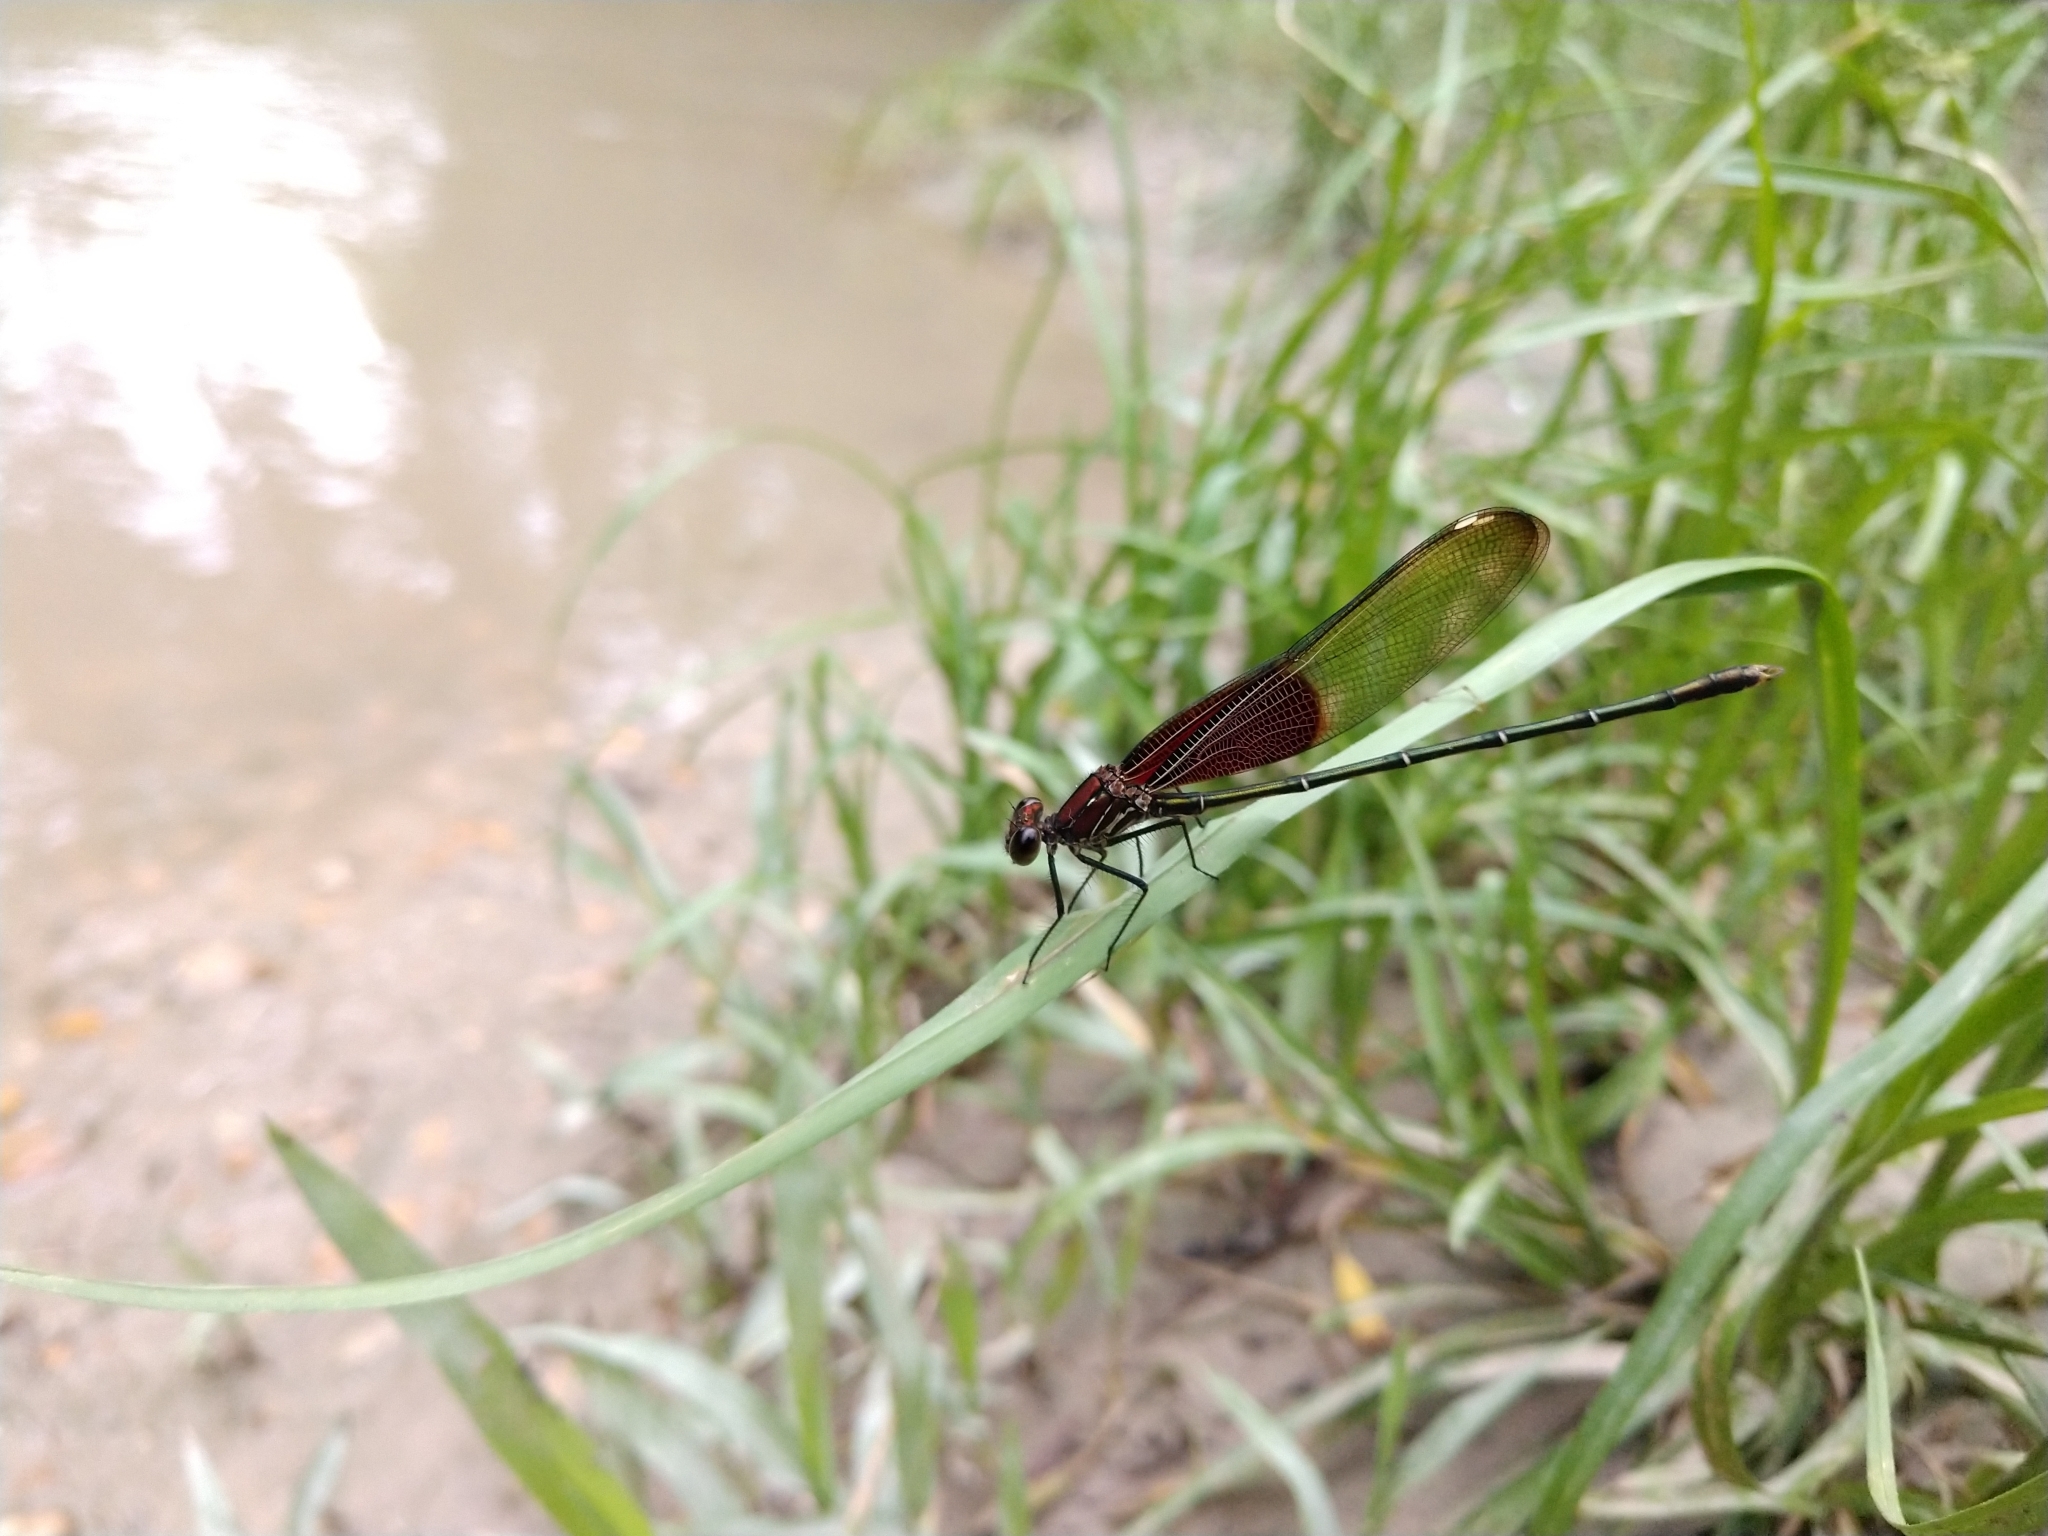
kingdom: Animalia
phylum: Arthropoda
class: Insecta
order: Odonata
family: Calopterygidae
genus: Hetaerina
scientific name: Hetaerina americana
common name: American rubyspot
